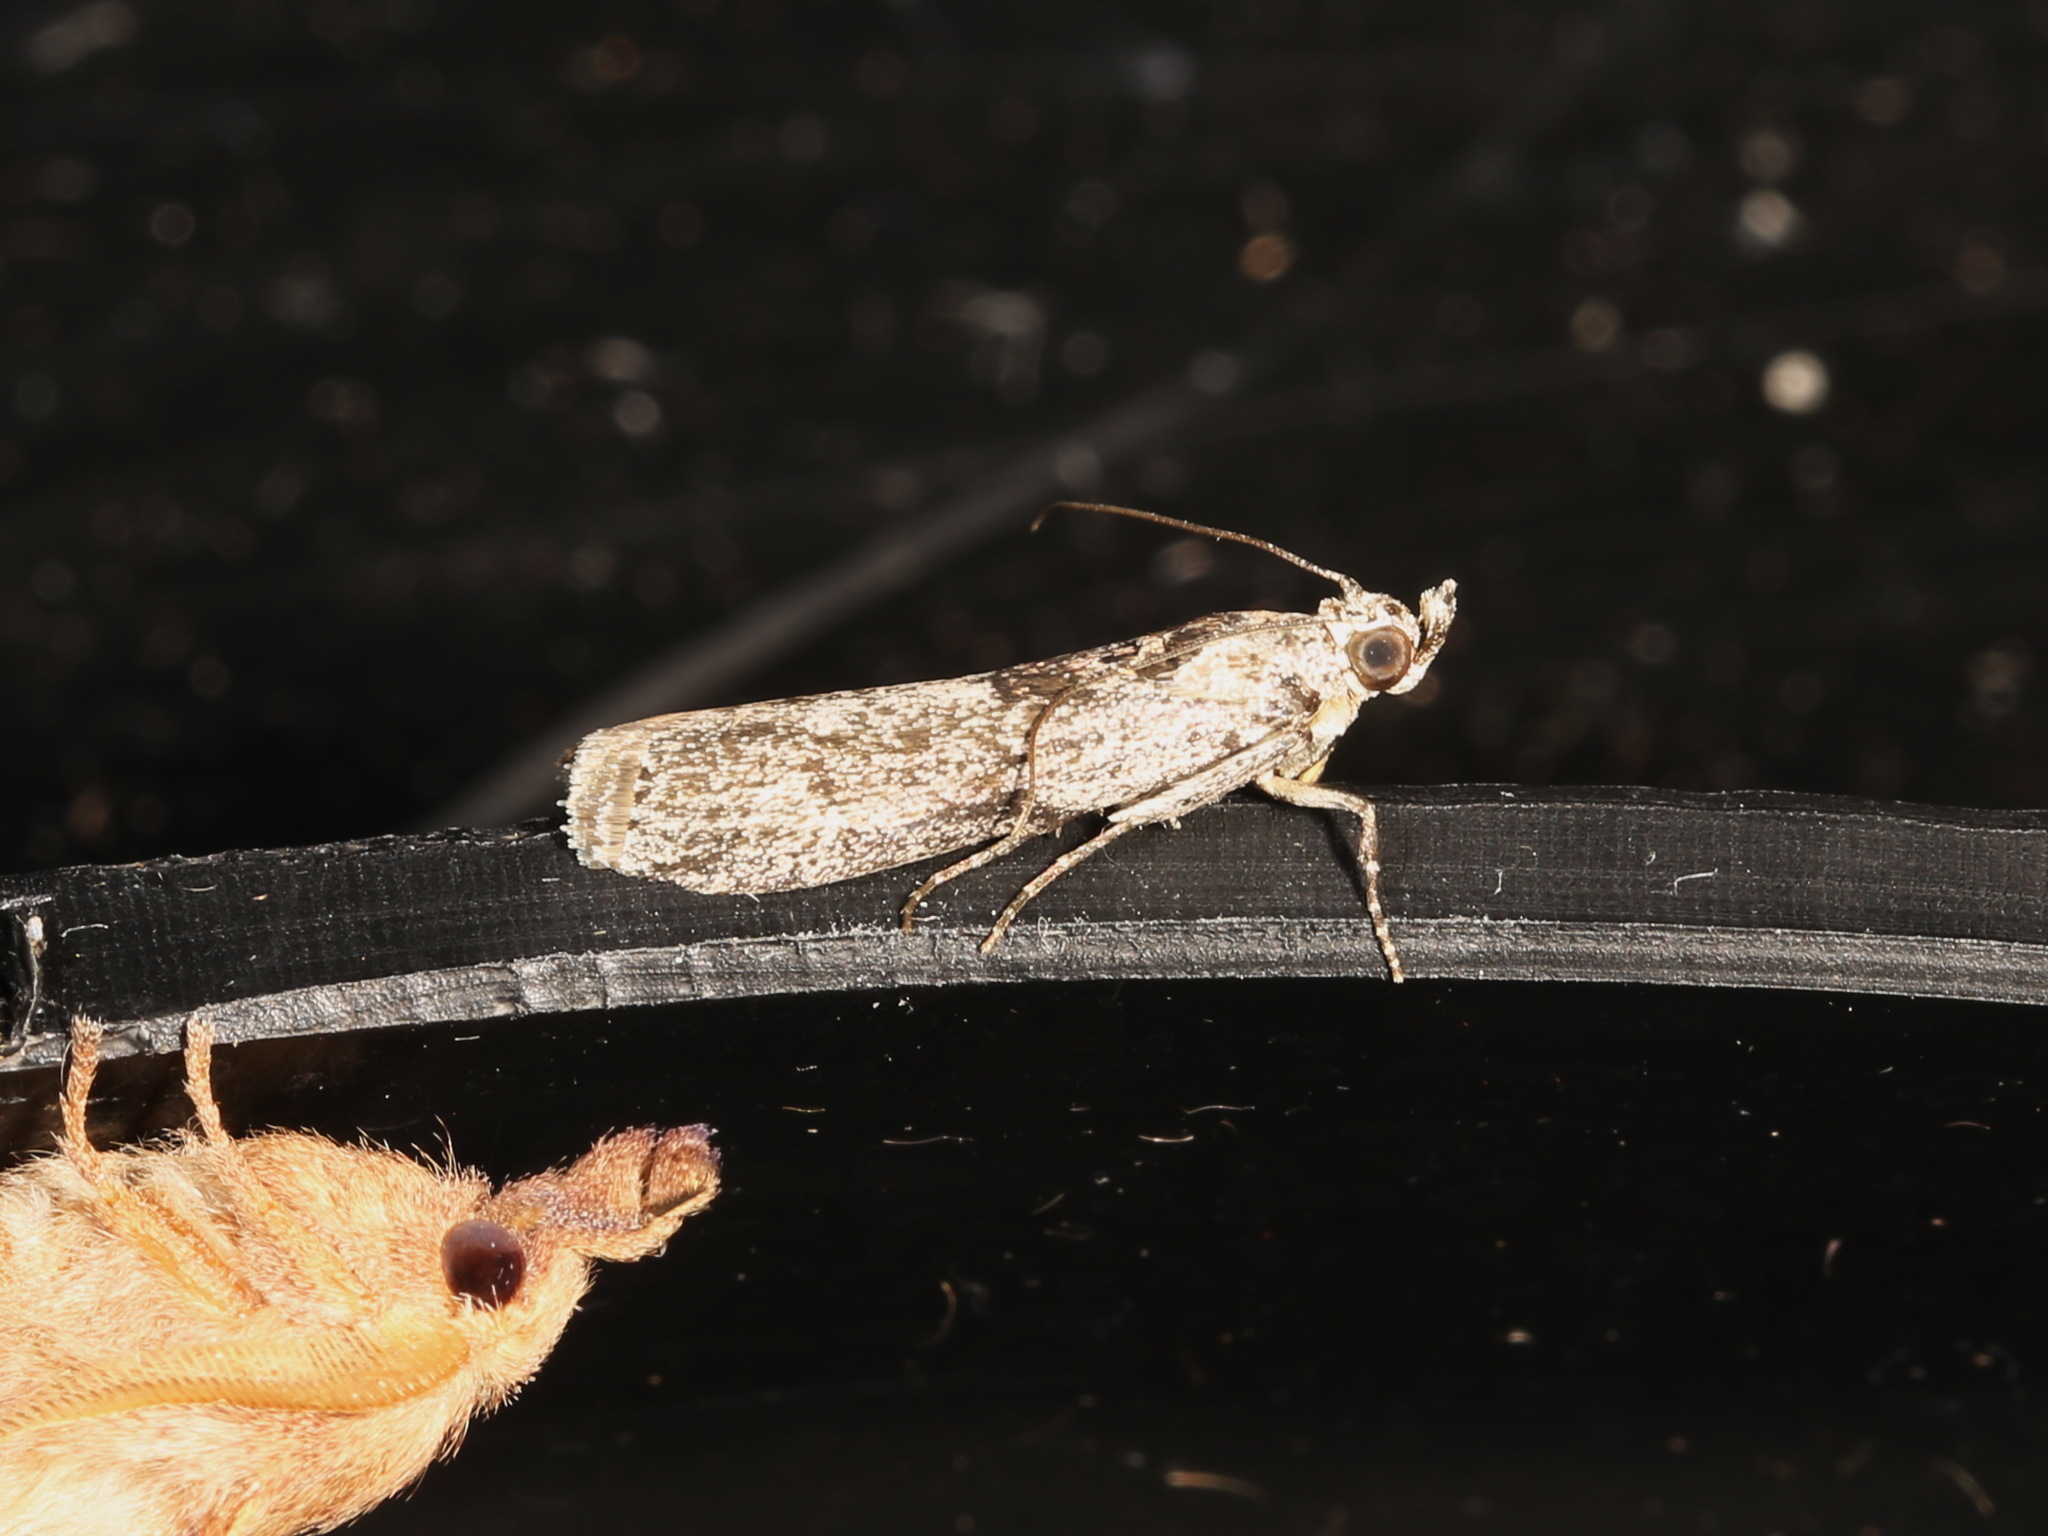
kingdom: Animalia
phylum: Arthropoda
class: Insecta
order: Lepidoptera
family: Pyralidae
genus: Sciota
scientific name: Sciota
